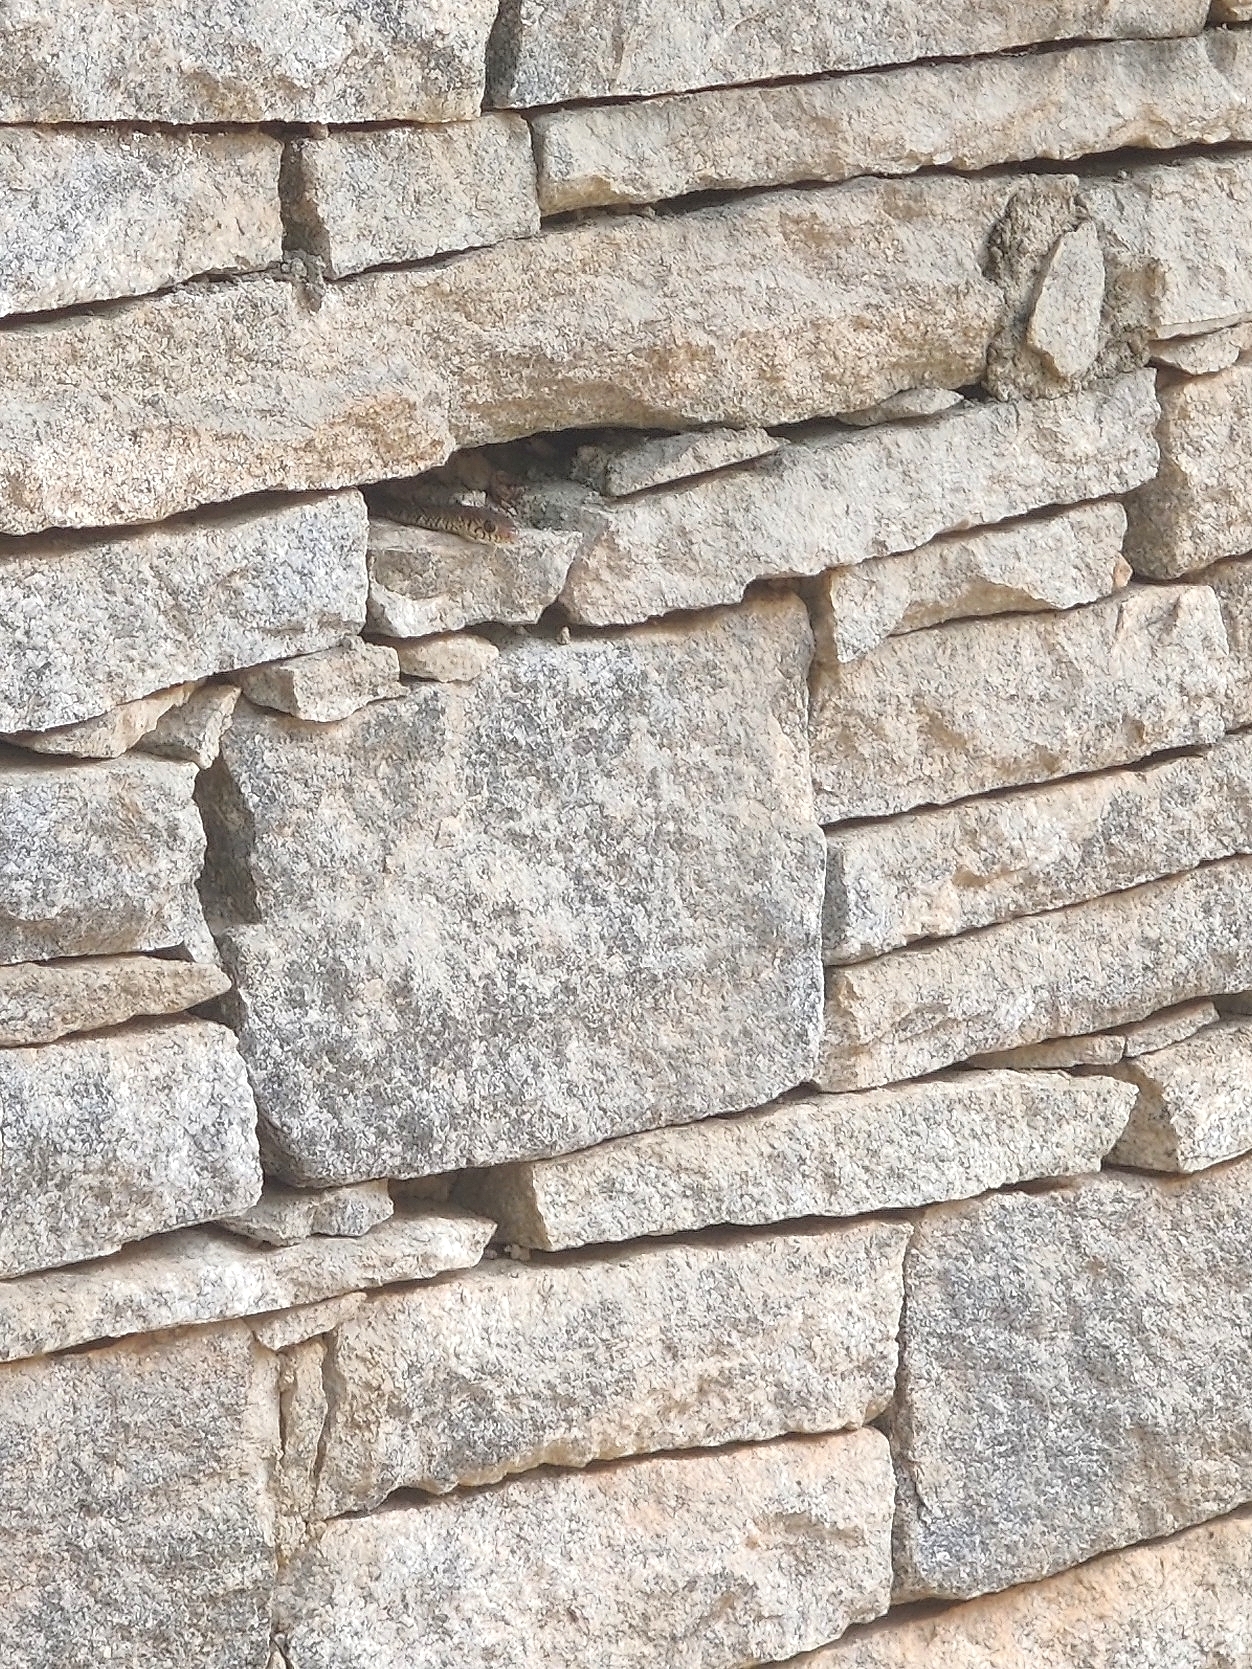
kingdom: Animalia
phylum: Chordata
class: Squamata
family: Colubridae
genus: Ptyas
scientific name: Ptyas mucosa
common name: Oriental ratsnake
